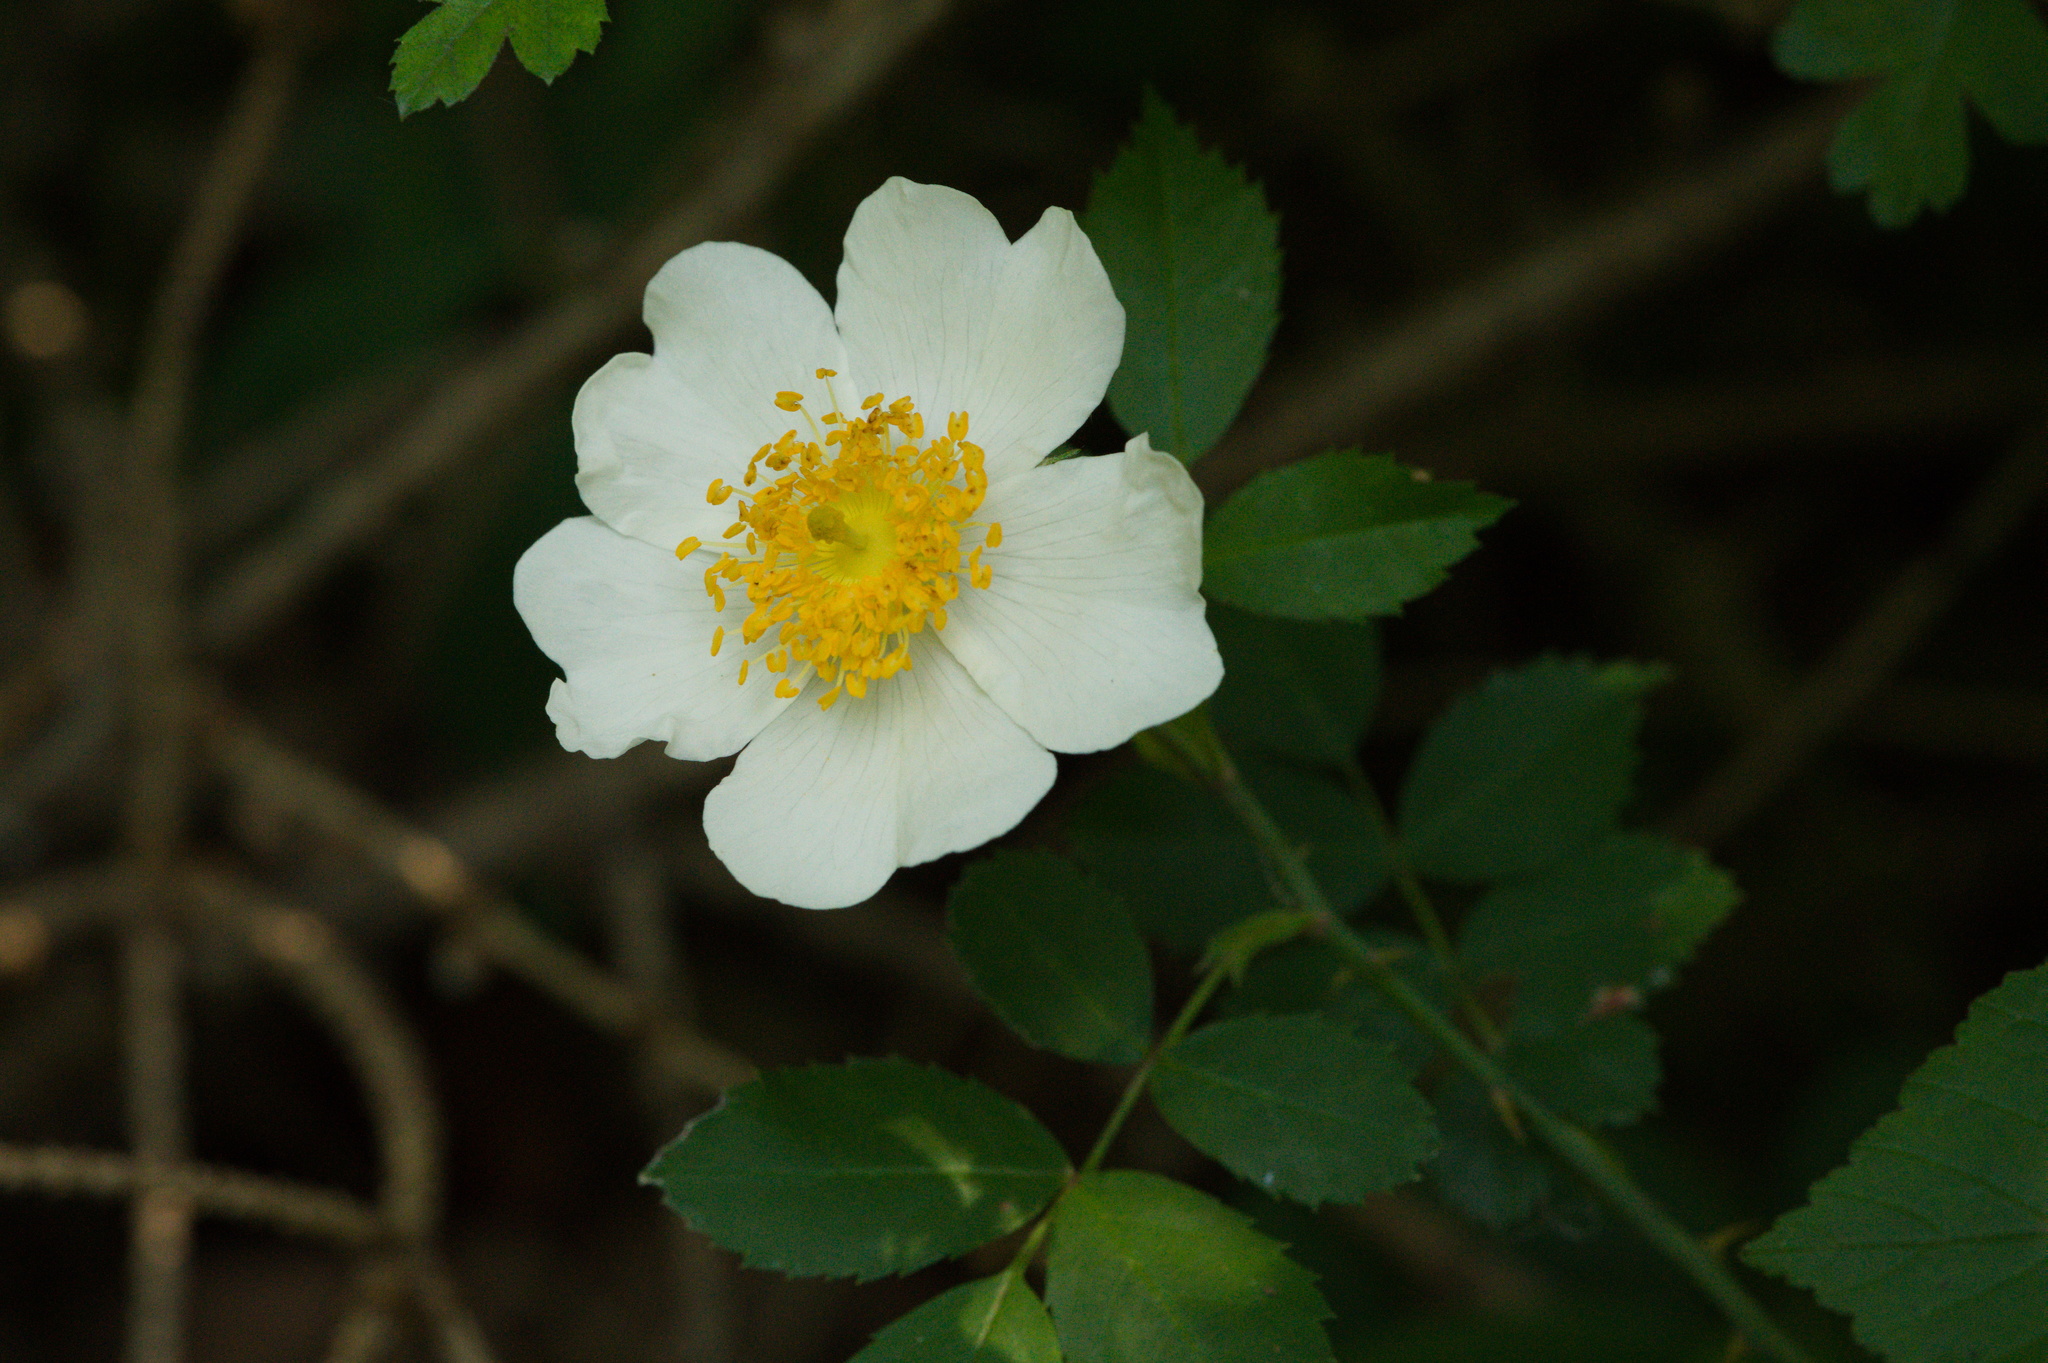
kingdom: Plantae
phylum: Tracheophyta
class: Magnoliopsida
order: Rosales
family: Rosaceae
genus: Rosa
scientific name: Rosa arvensis
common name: Field rose
